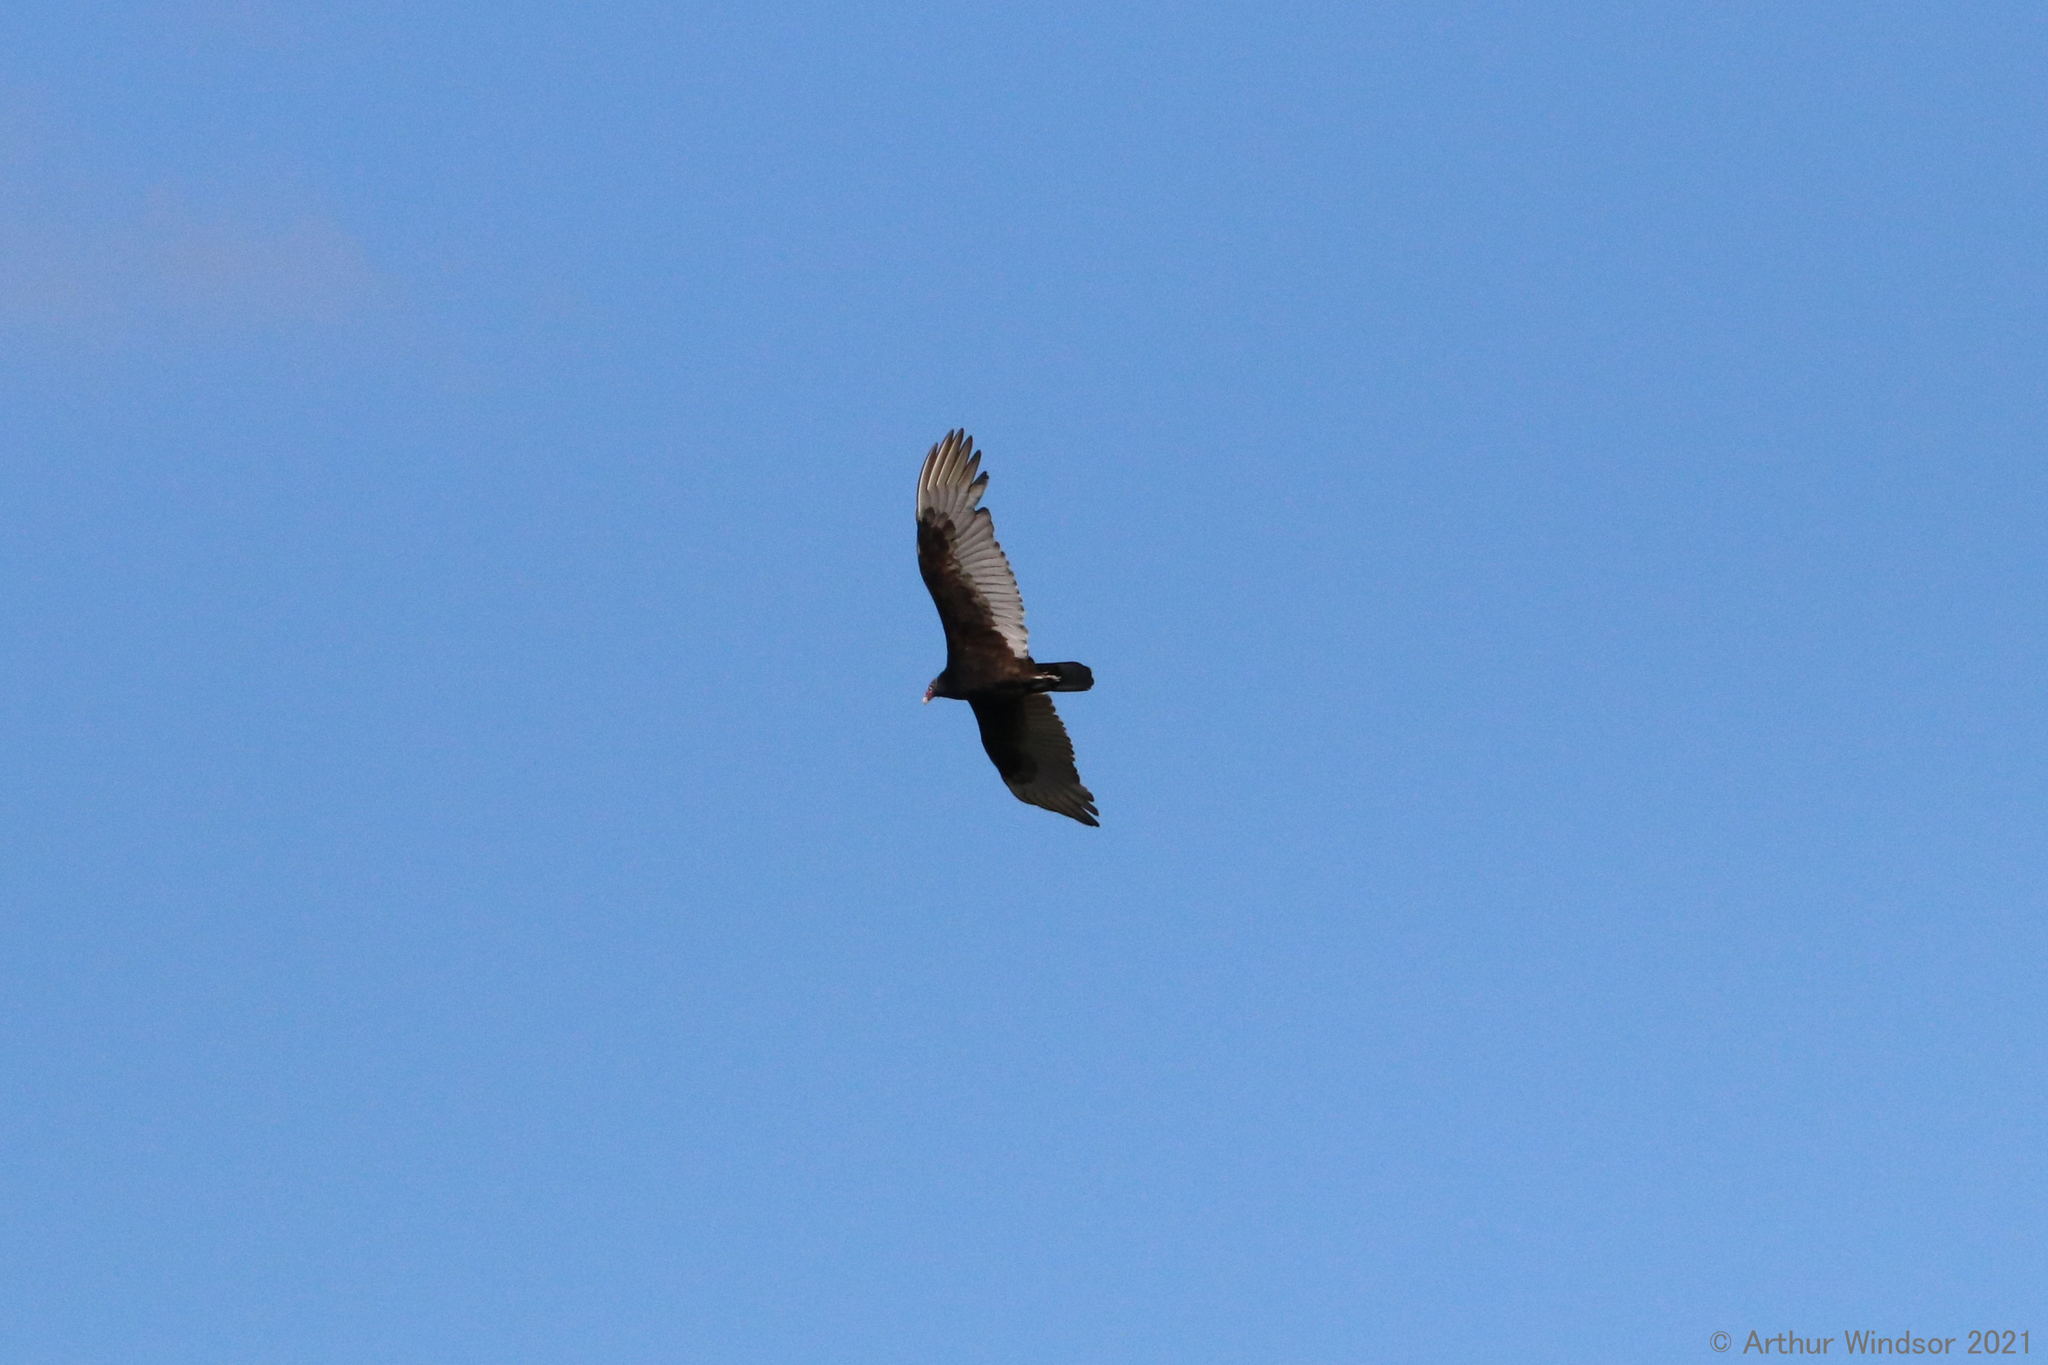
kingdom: Animalia
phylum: Chordata
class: Aves
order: Accipitriformes
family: Cathartidae
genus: Cathartes
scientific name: Cathartes aura
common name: Turkey vulture
